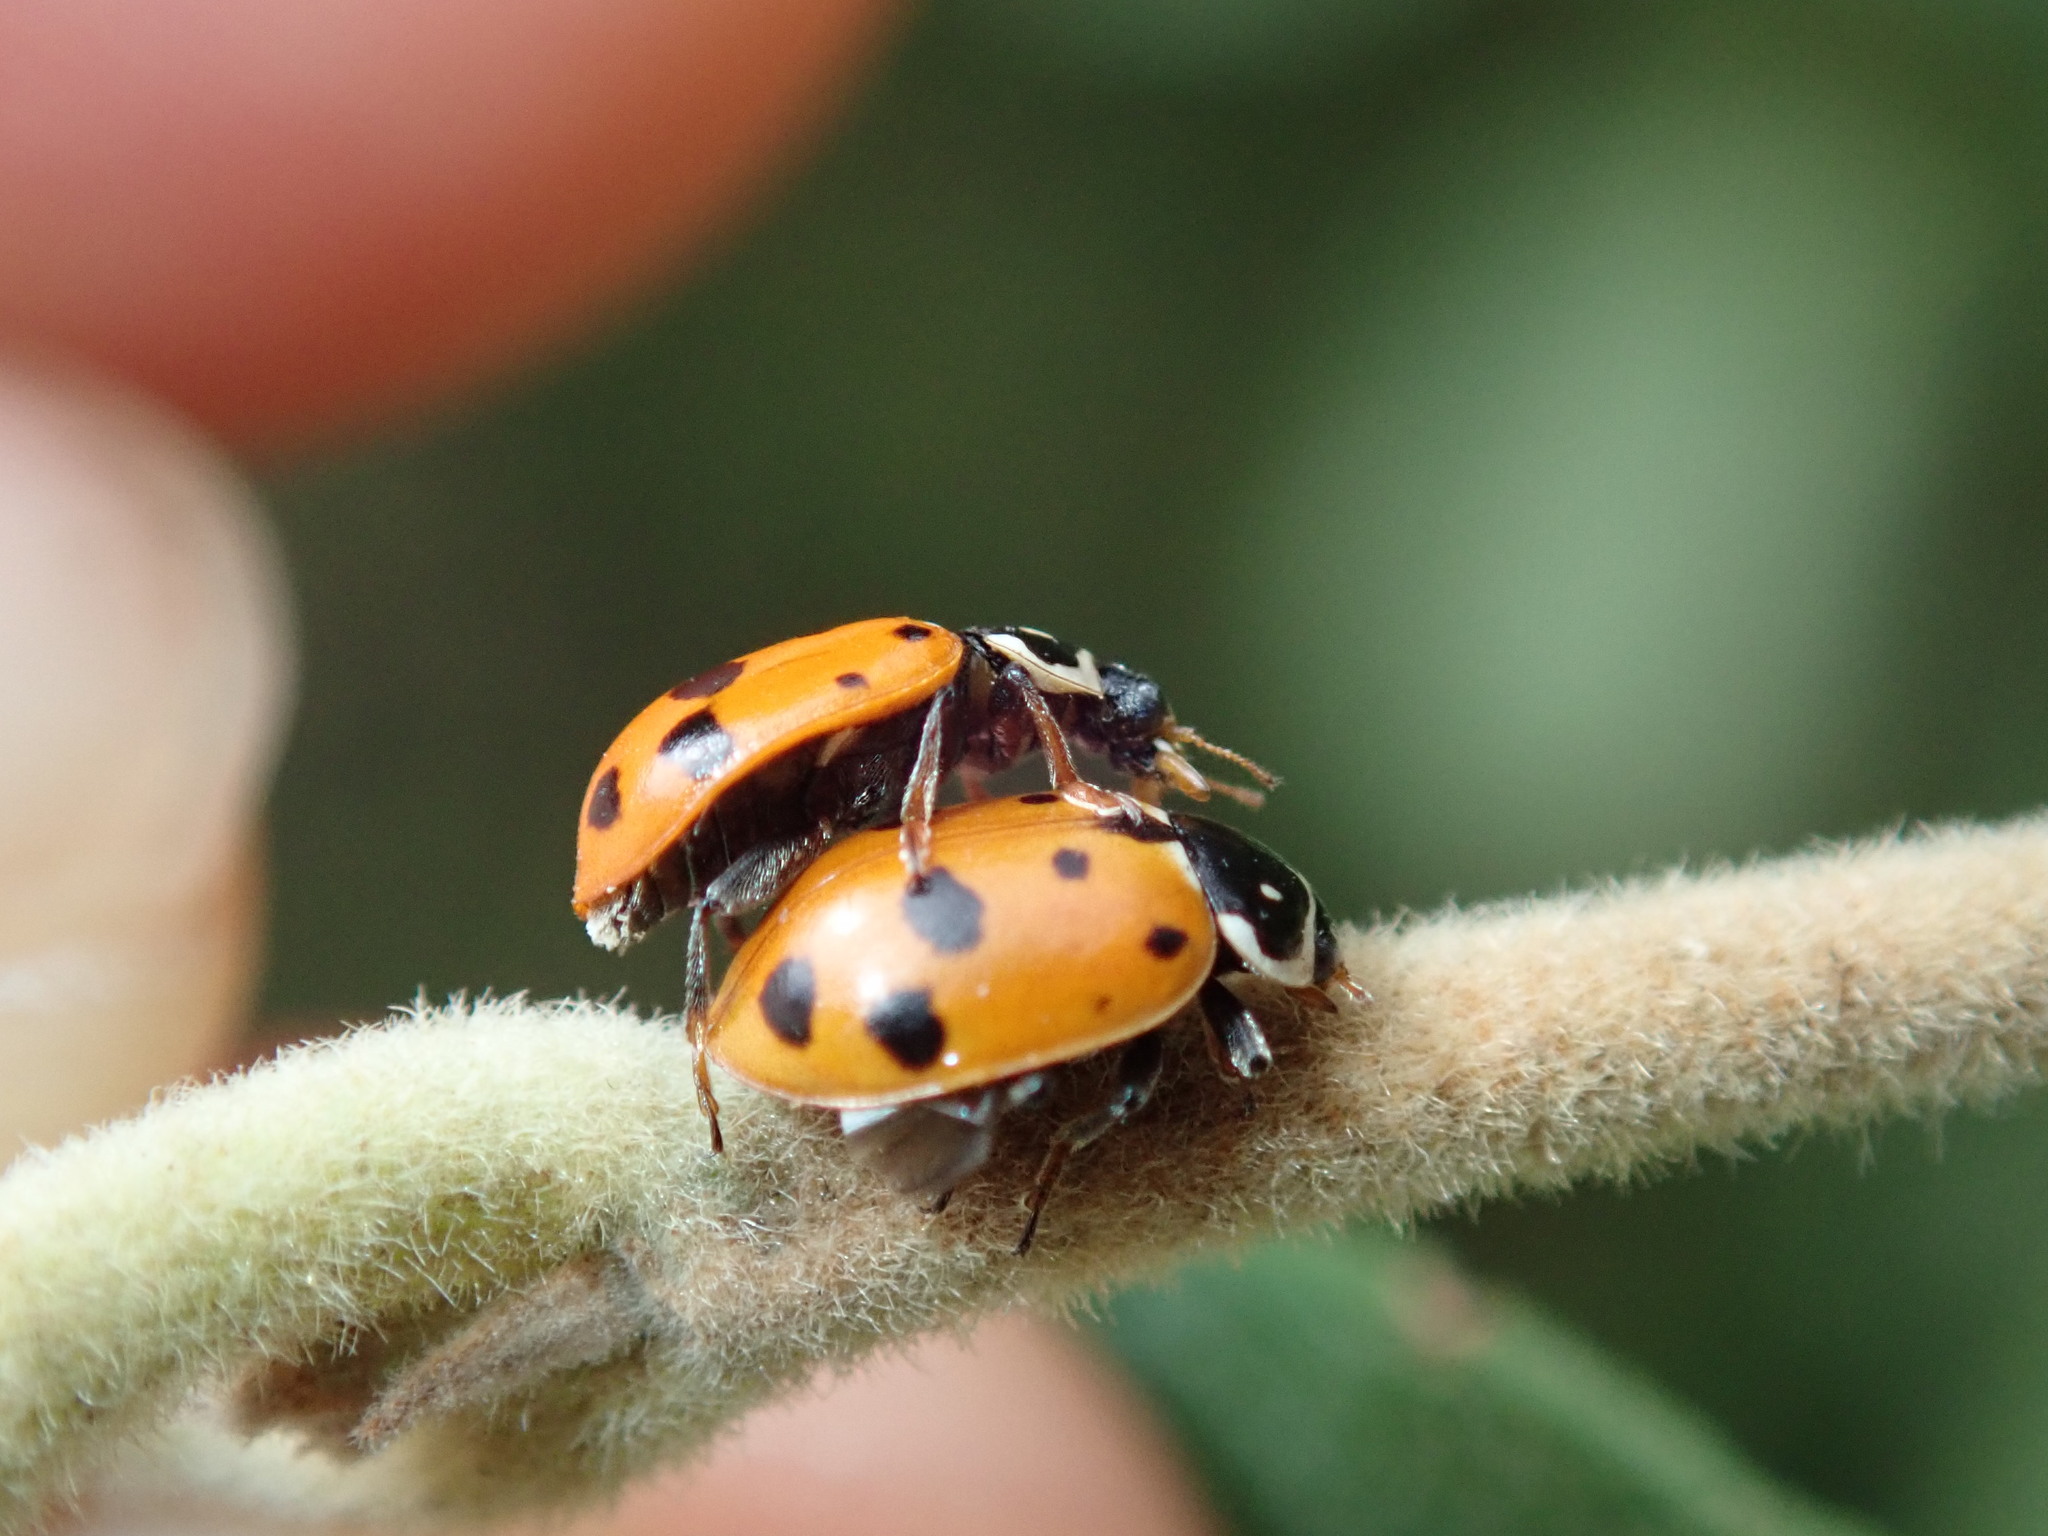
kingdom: Animalia
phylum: Arthropoda
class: Insecta
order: Coleoptera
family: Coccinellidae
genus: Hippodamia
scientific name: Hippodamia variegata
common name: Ladybird beetle
